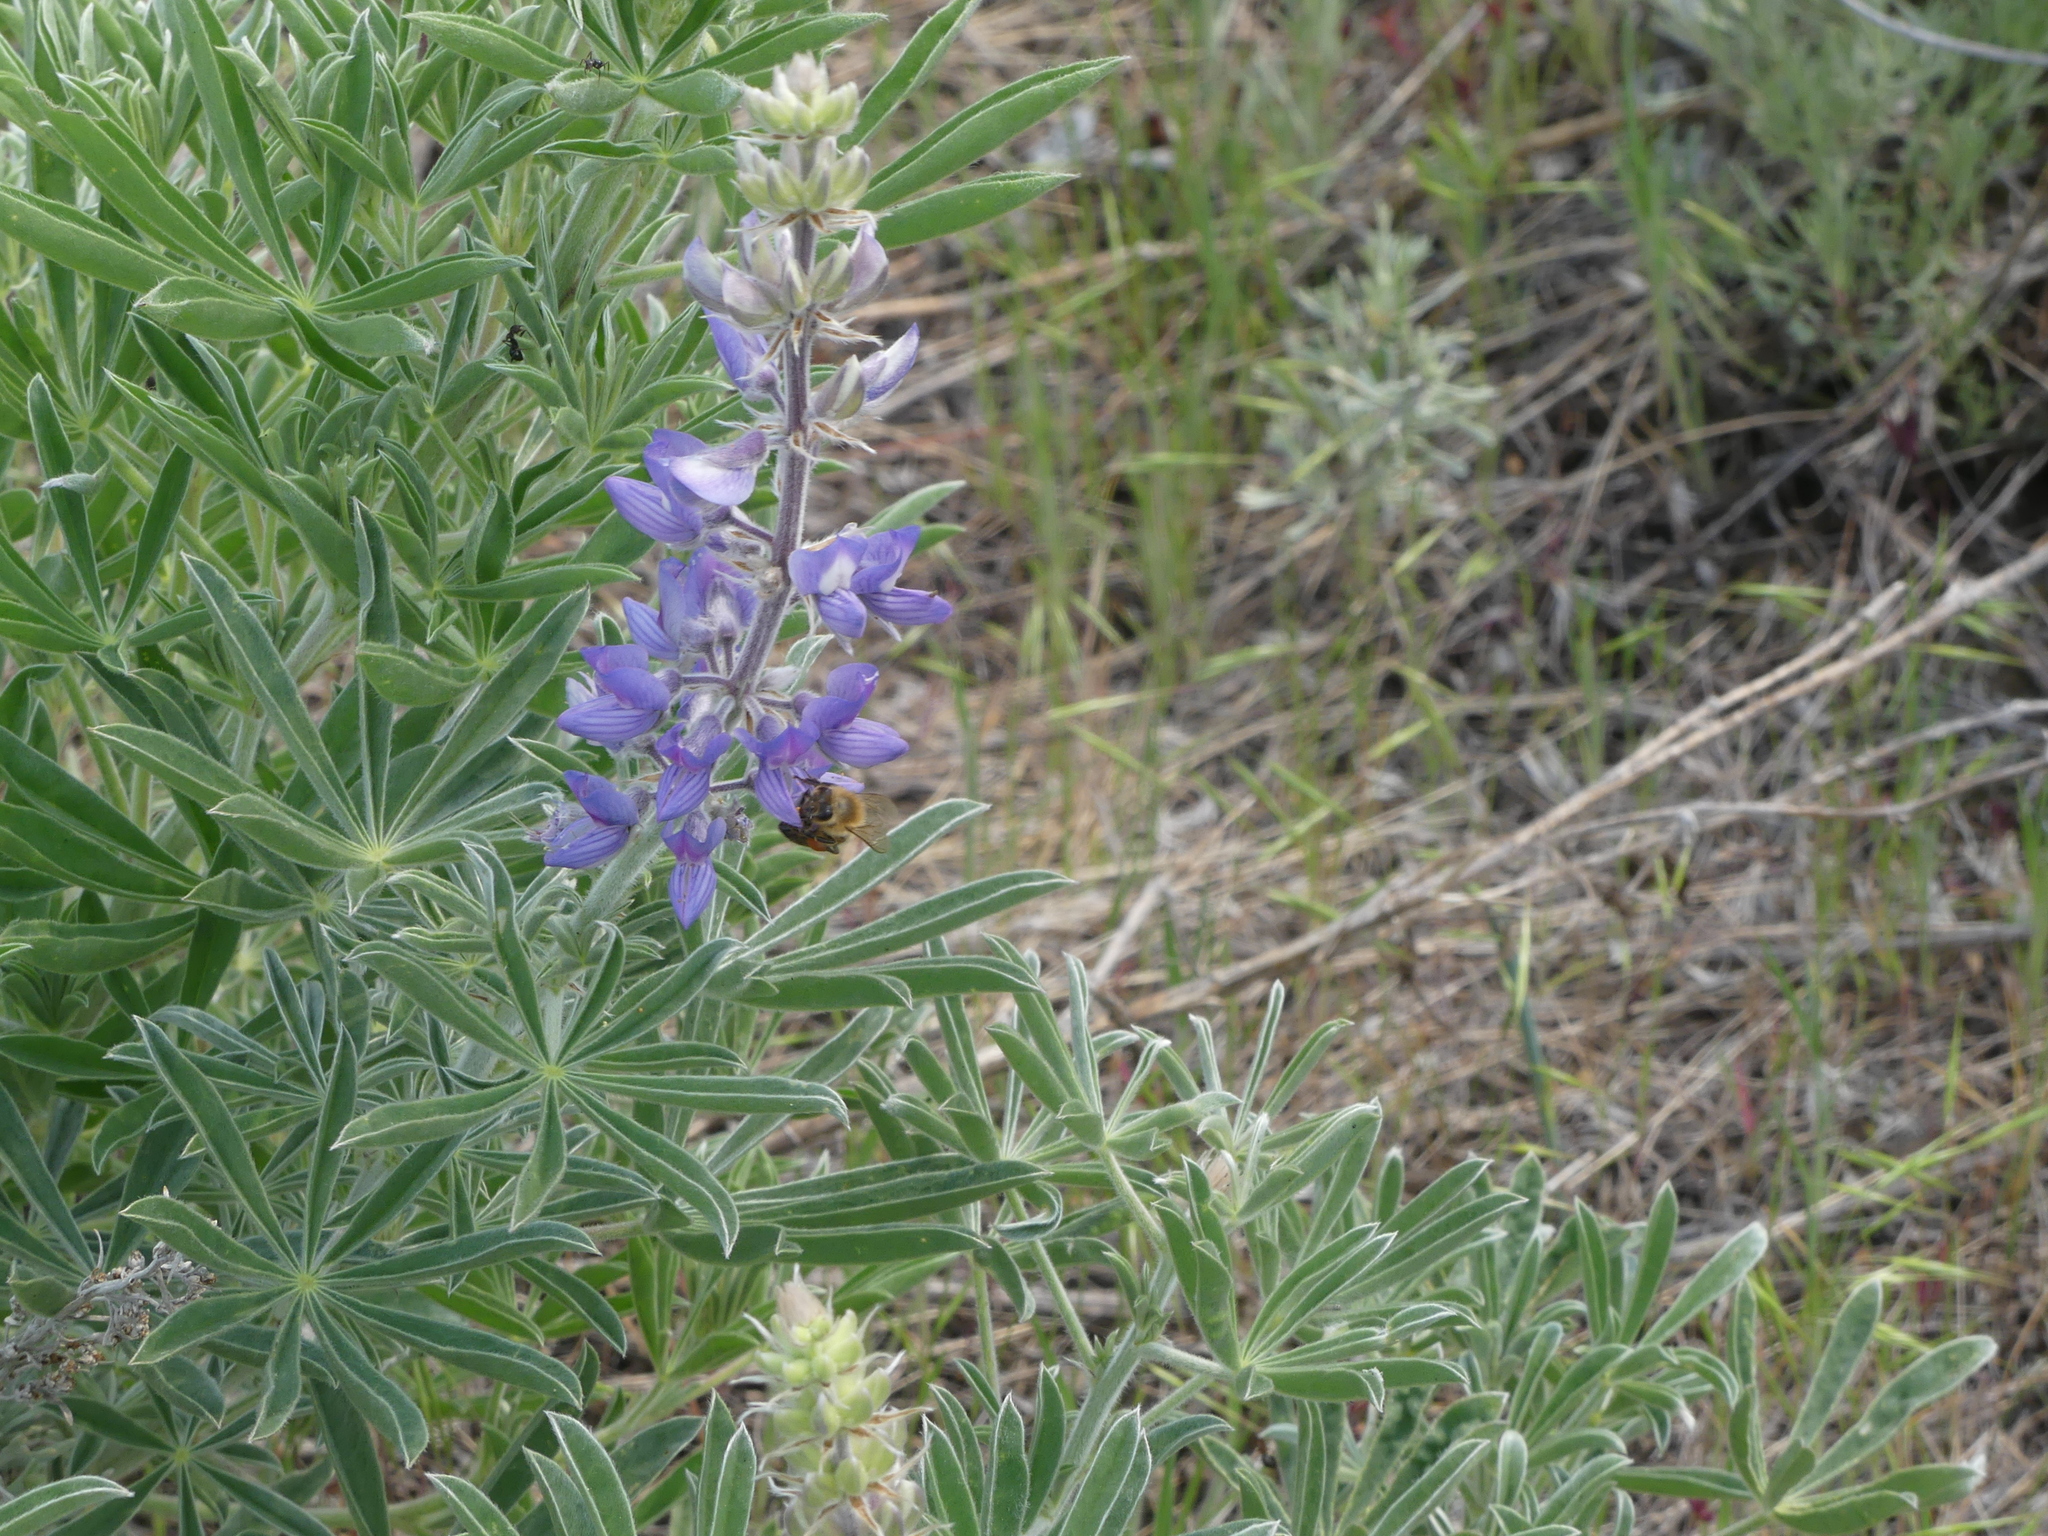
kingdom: Animalia
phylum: Arthropoda
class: Insecta
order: Hymenoptera
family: Apidae
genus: Apis
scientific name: Apis mellifera
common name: Honey bee
